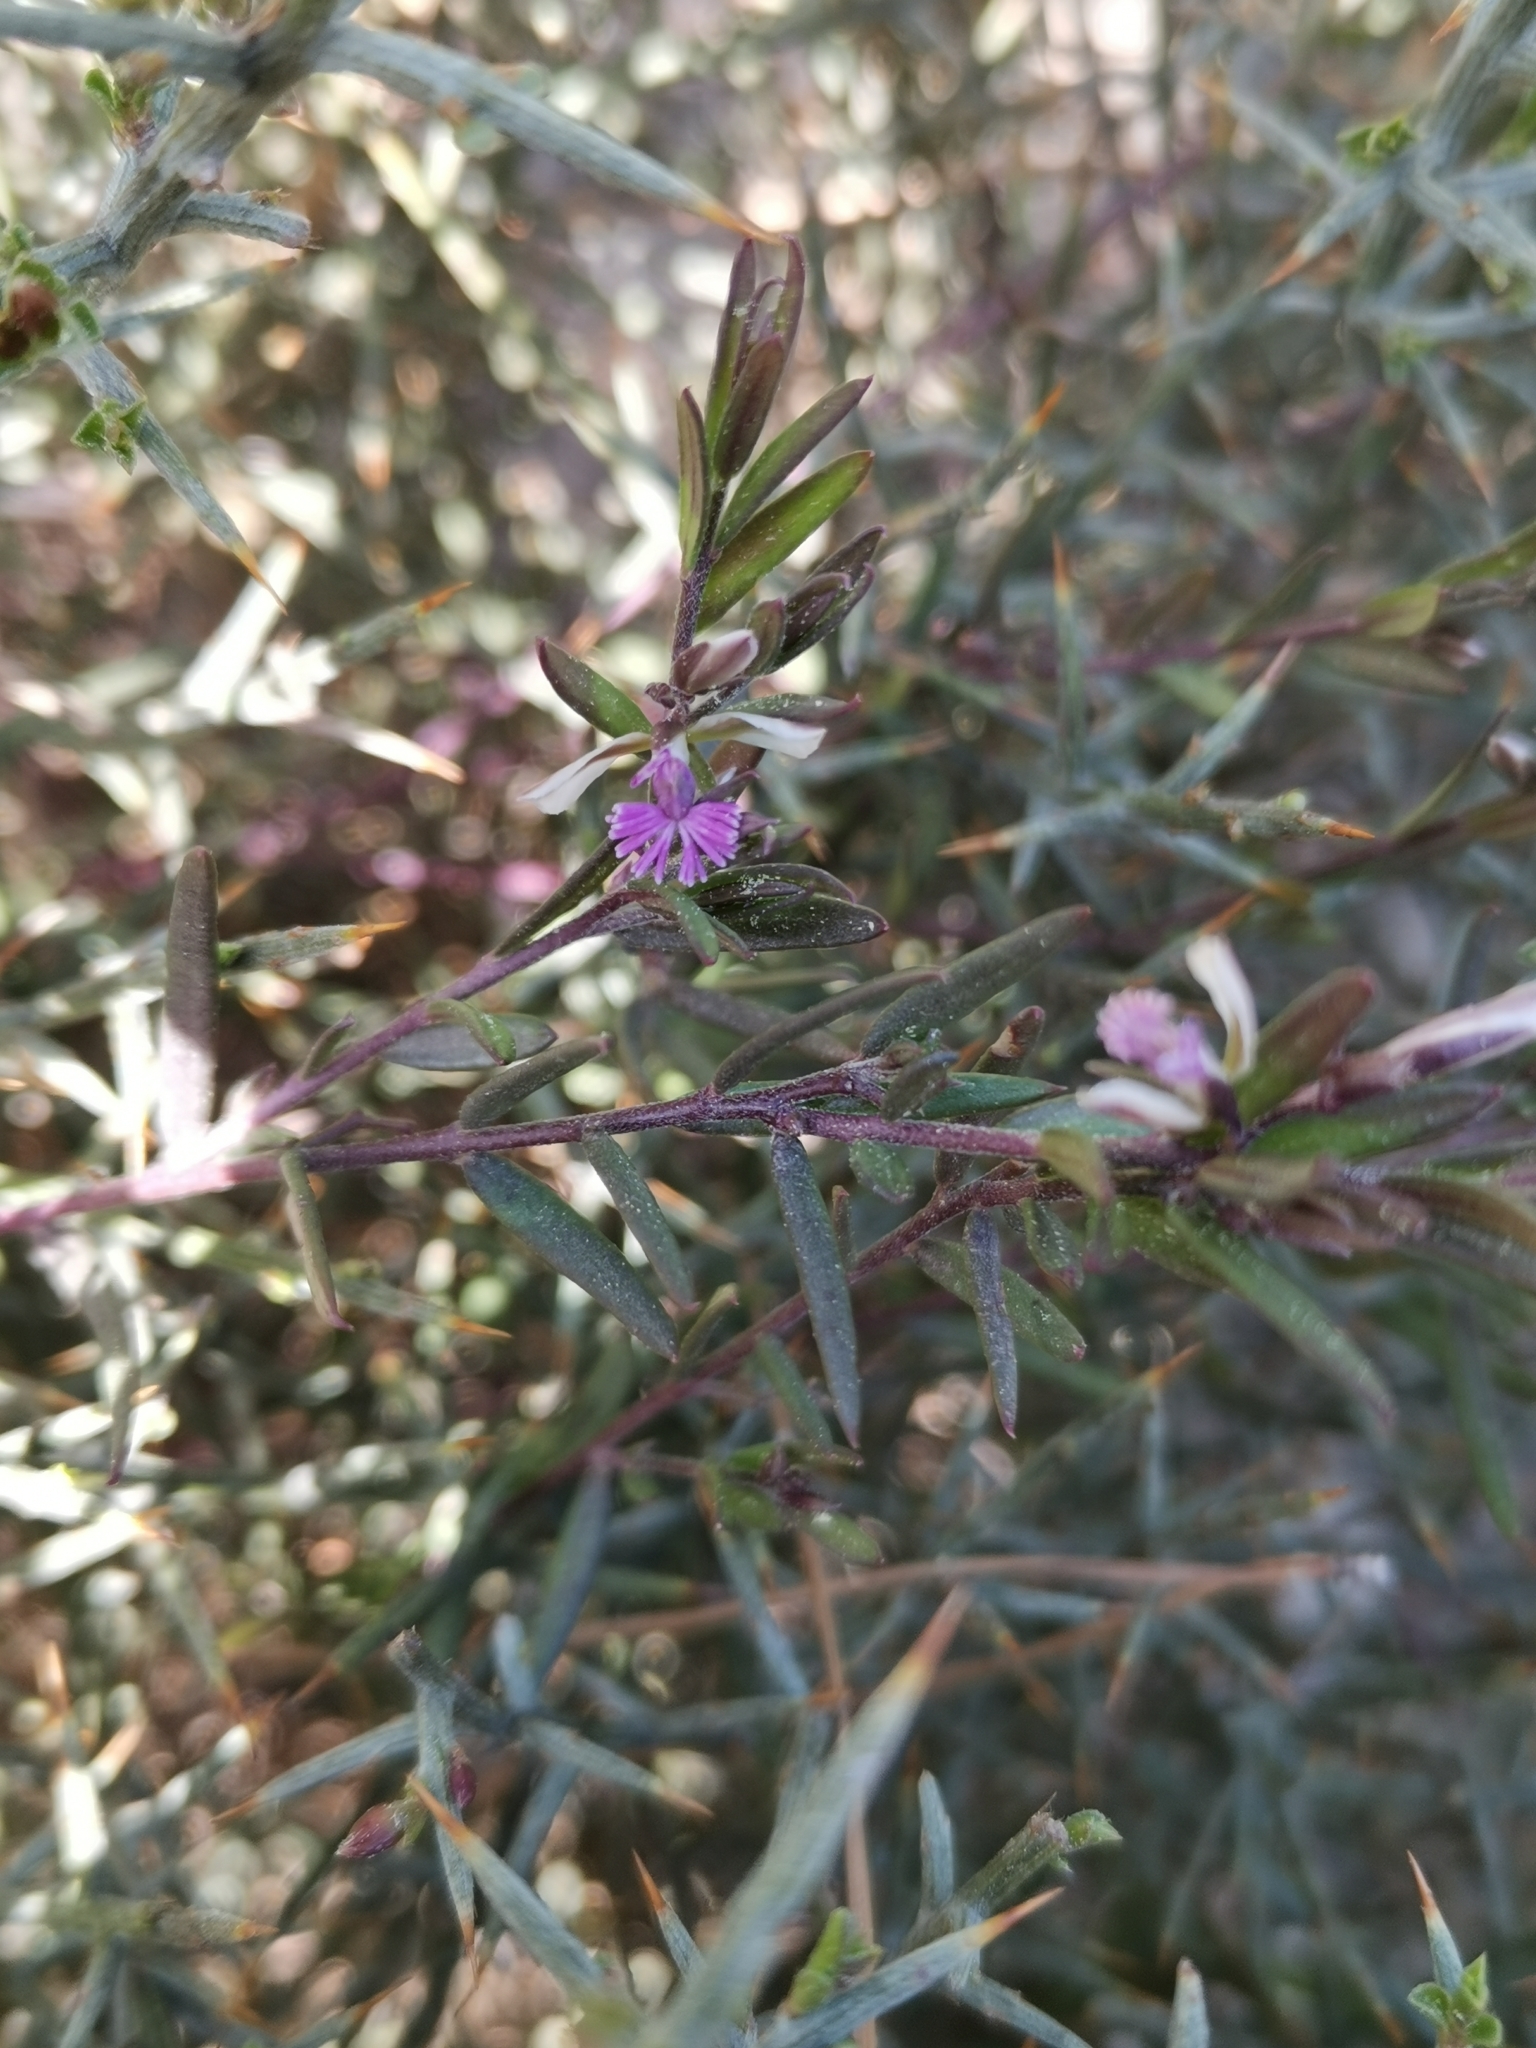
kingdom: Plantae
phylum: Tracheophyta
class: Magnoliopsida
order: Fabales
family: Polygalaceae
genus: Polygala
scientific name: Polygala rupestris
